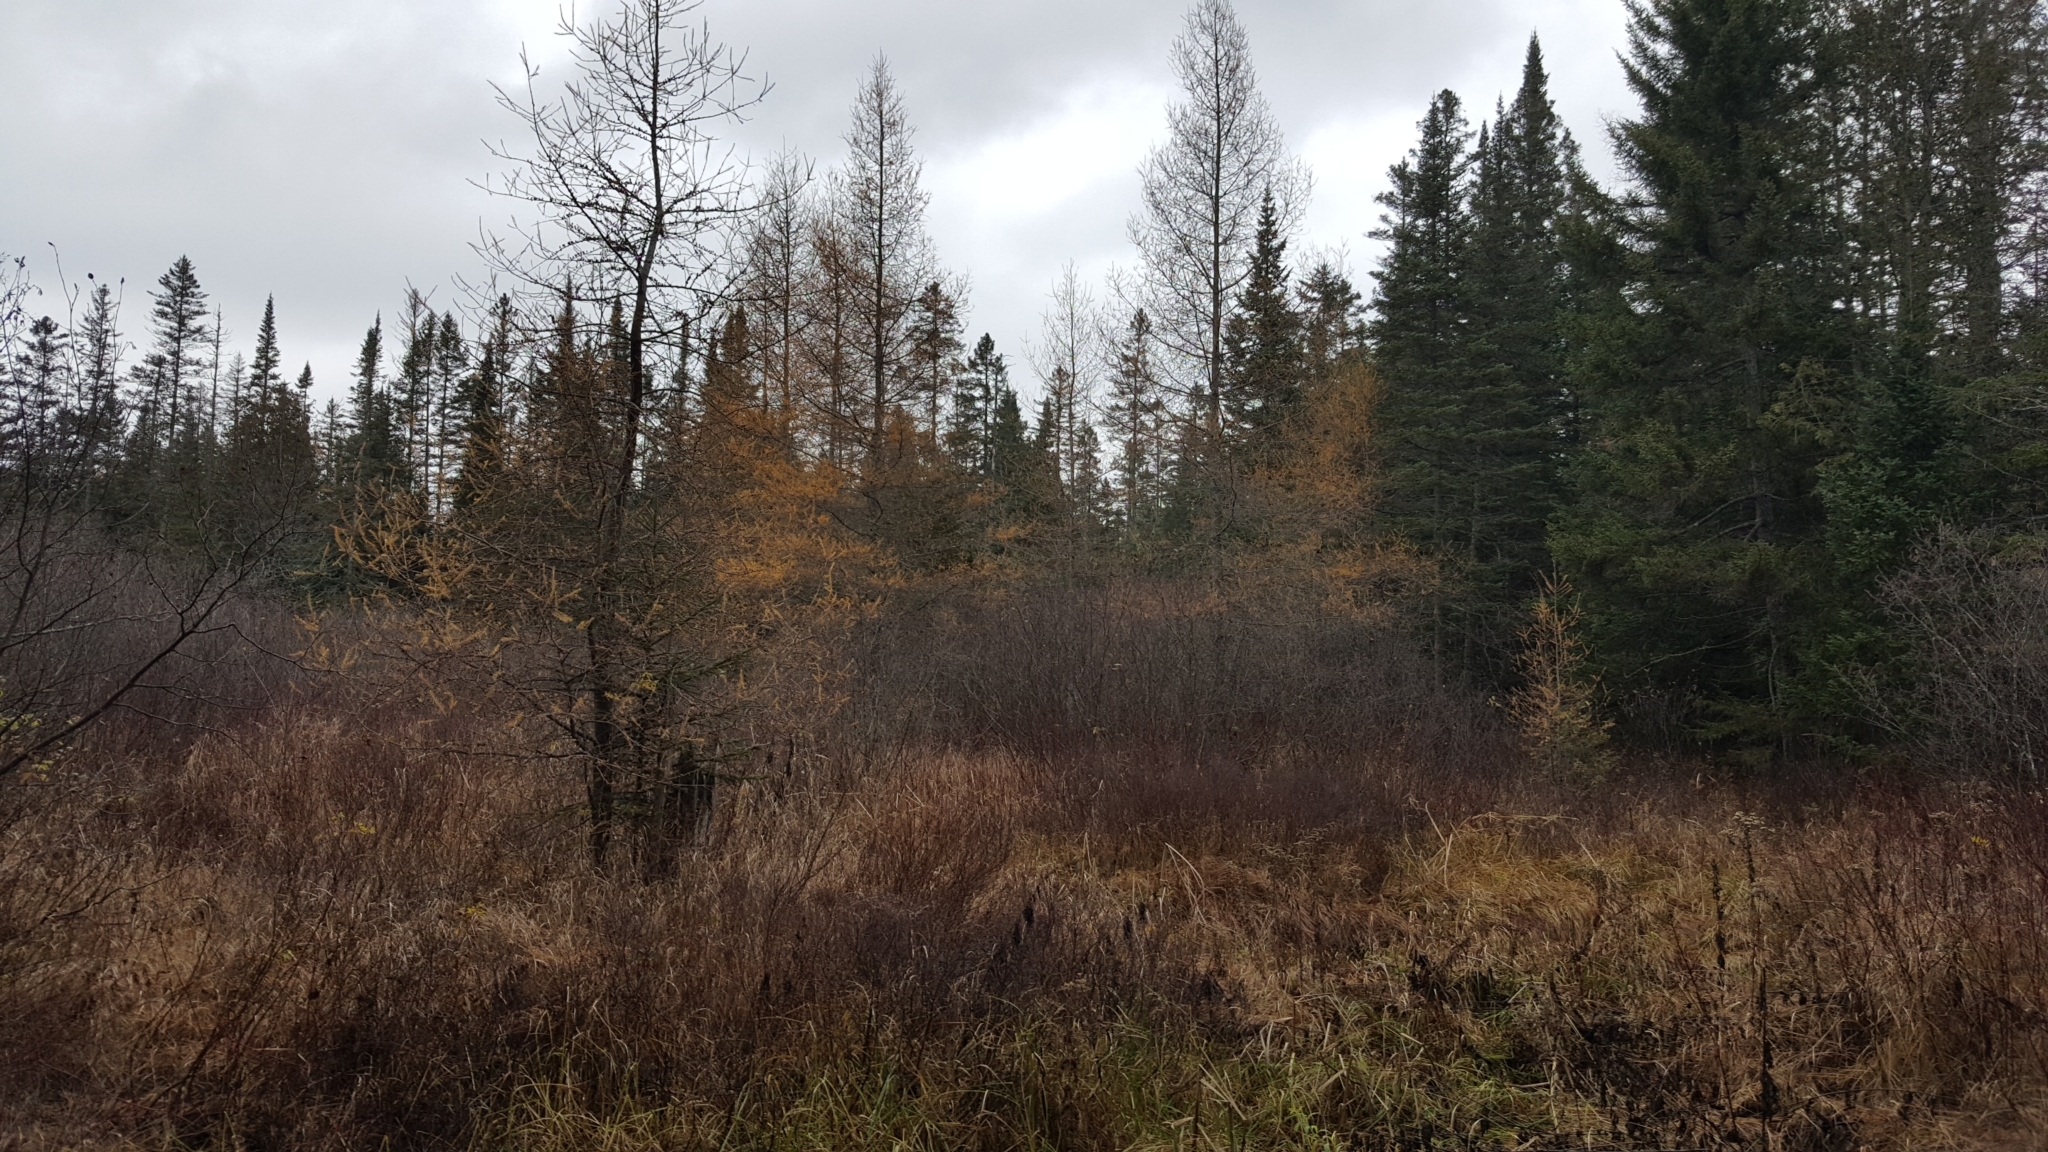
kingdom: Plantae
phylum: Tracheophyta
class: Pinopsida
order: Pinales
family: Pinaceae
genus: Larix
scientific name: Larix laricina
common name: American larch
